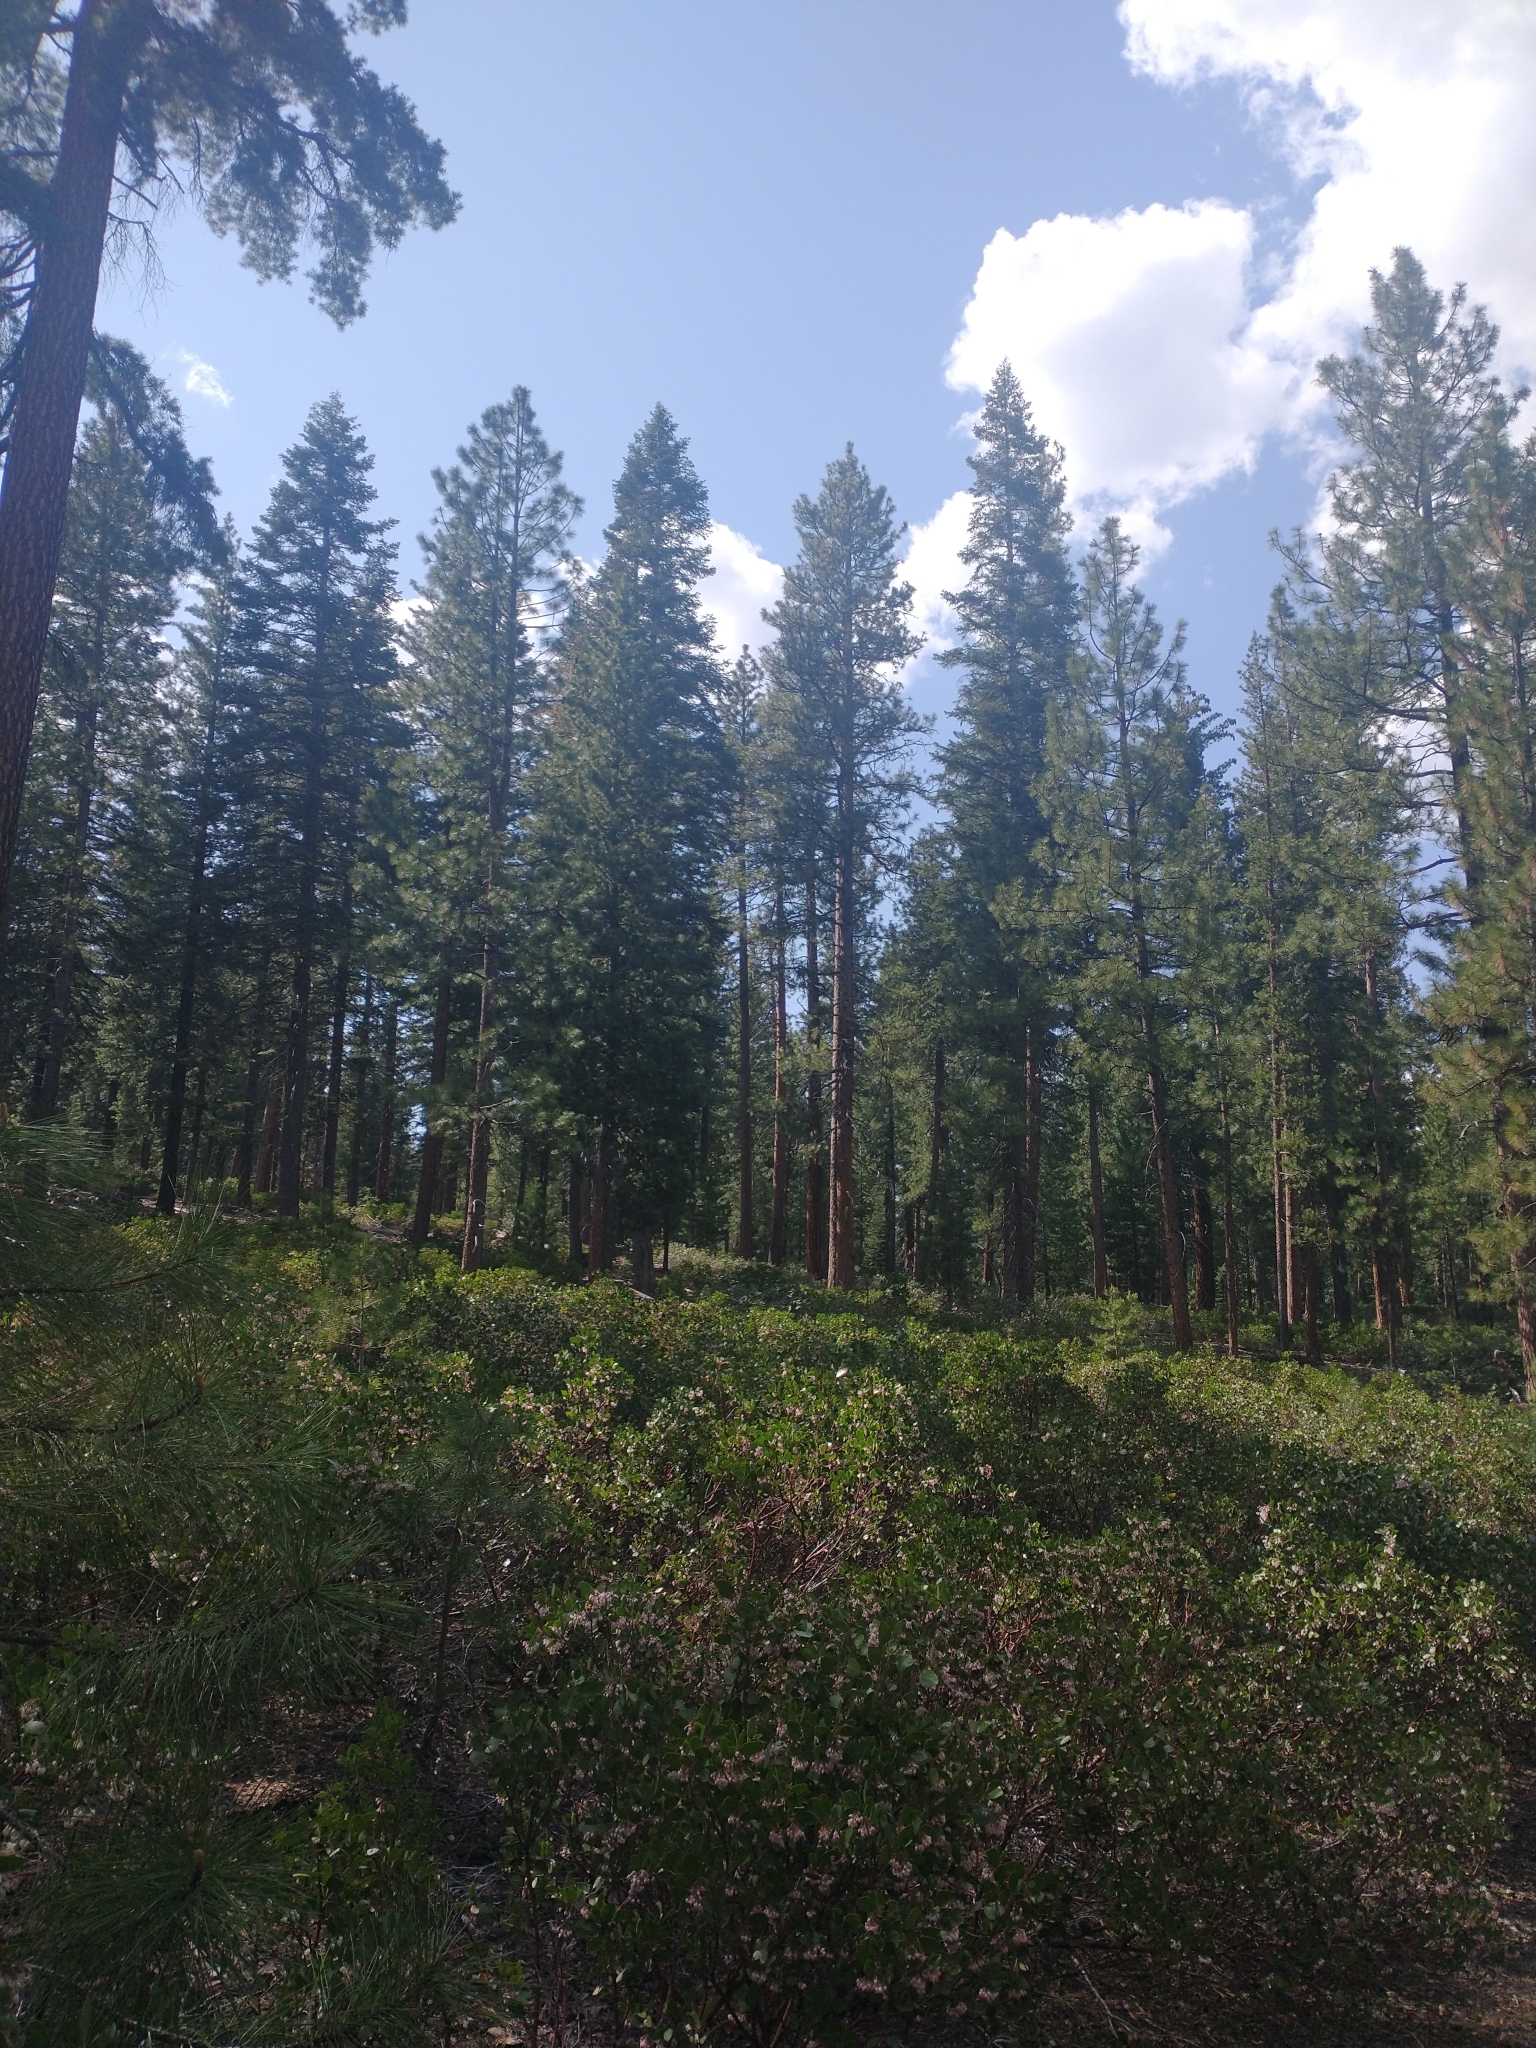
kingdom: Plantae
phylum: Tracheophyta
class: Magnoliopsida
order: Ericales
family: Ericaceae
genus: Arctostaphylos
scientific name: Arctostaphylos patula
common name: Green-leaf manzanita
